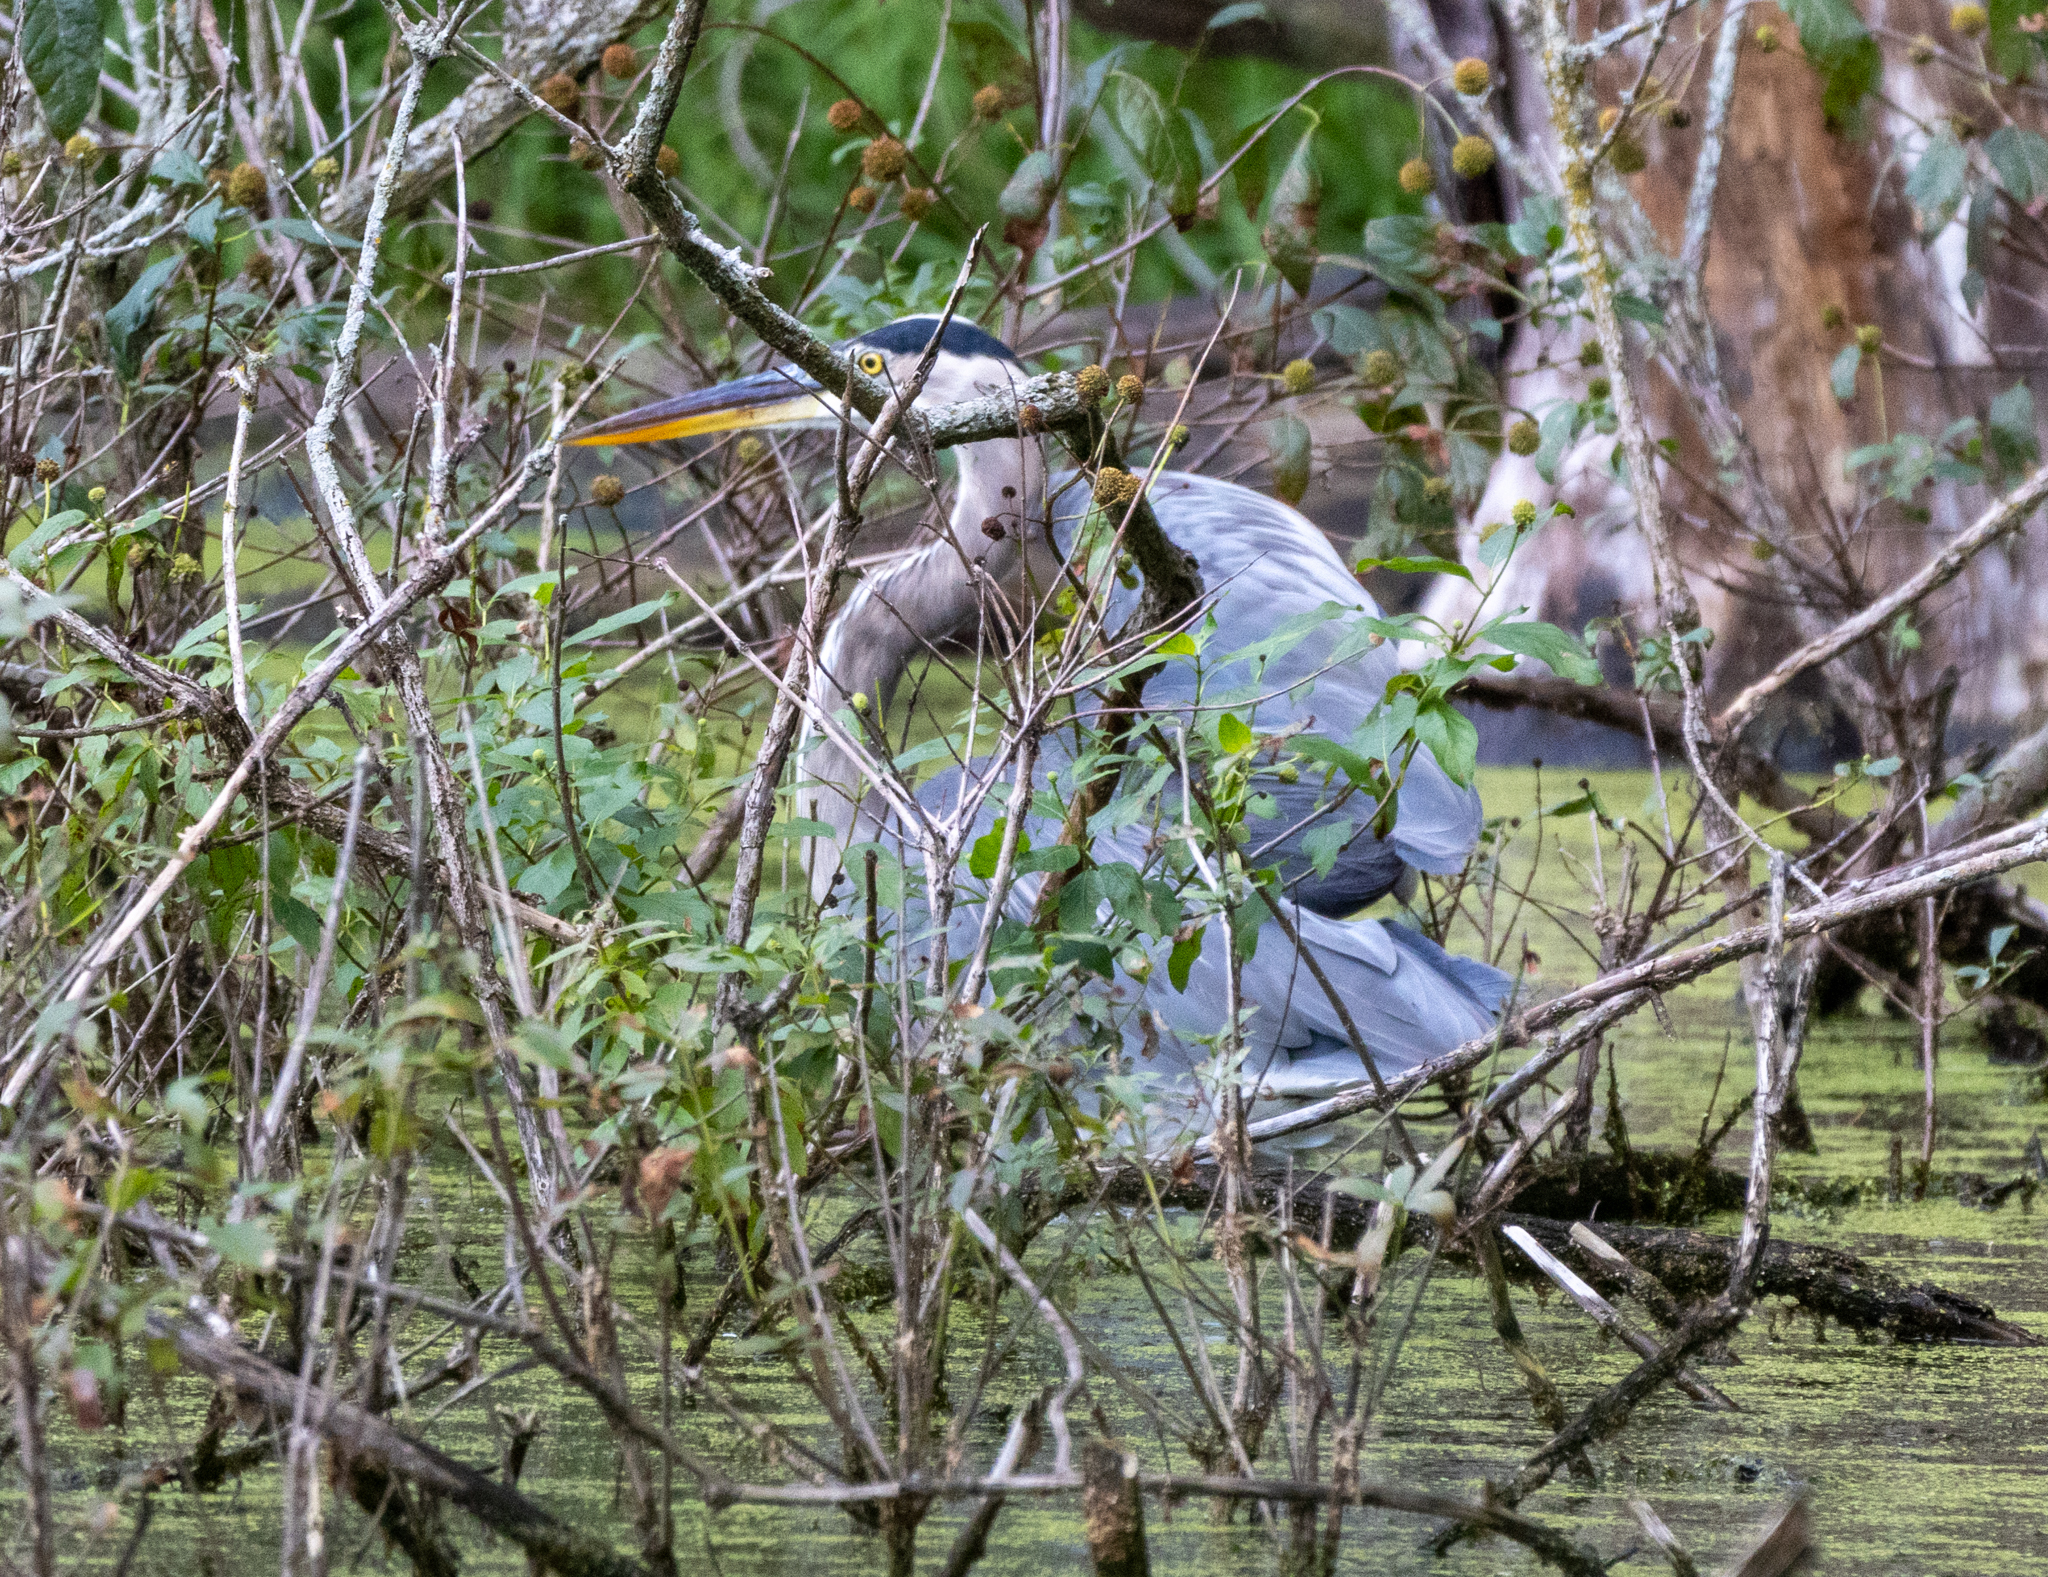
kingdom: Animalia
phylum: Chordata
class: Aves
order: Pelecaniformes
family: Ardeidae
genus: Ardea
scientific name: Ardea herodias
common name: Great blue heron
